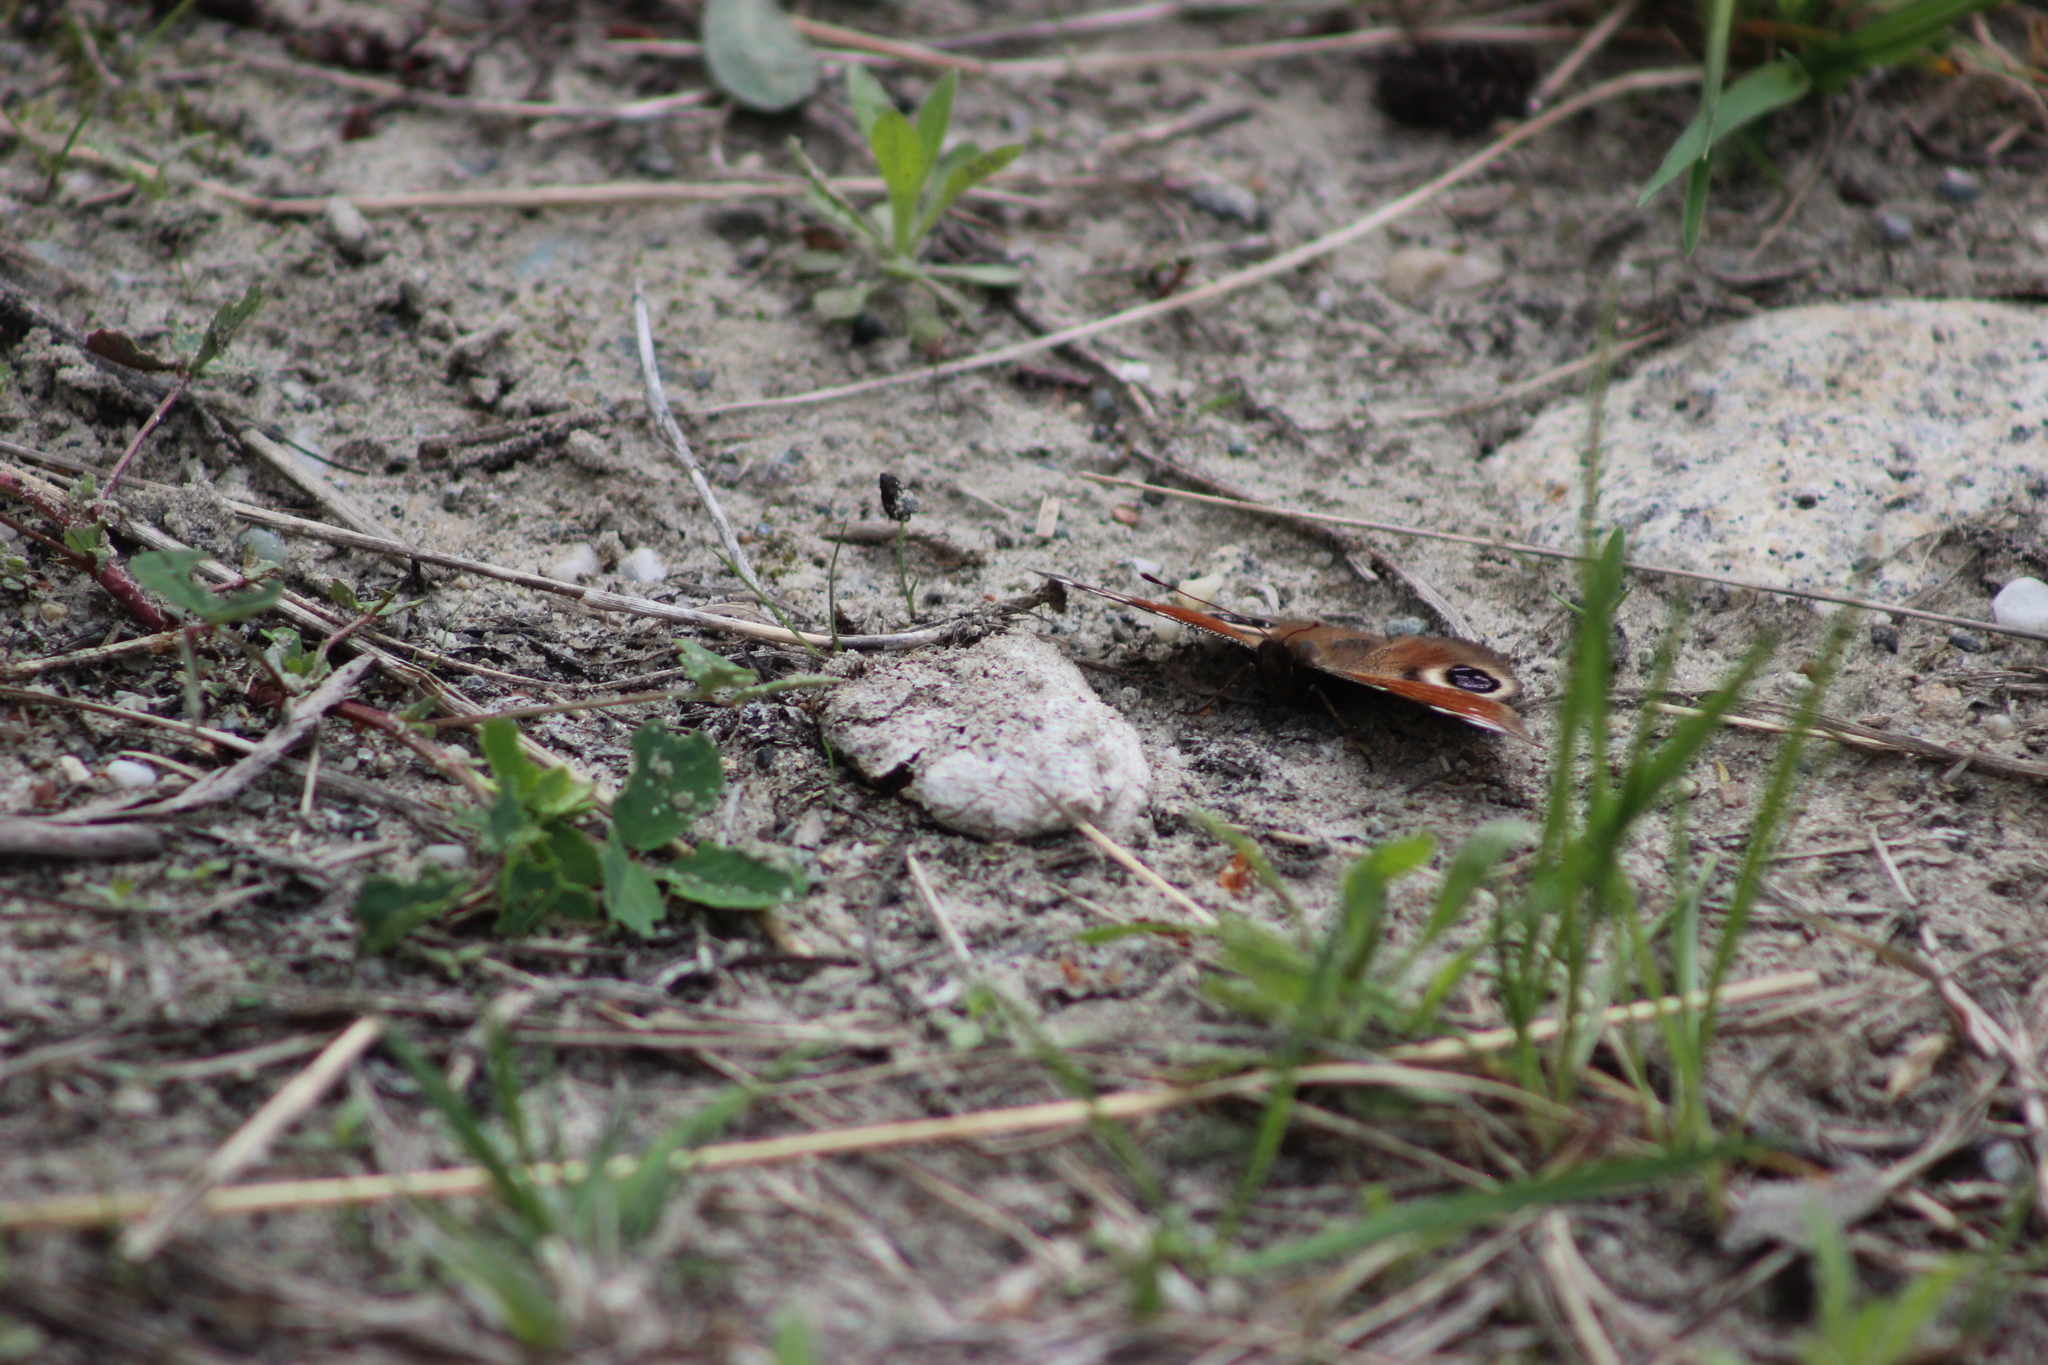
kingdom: Animalia
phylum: Arthropoda
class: Insecta
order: Lepidoptera
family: Nymphalidae
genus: Aglais
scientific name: Aglais io
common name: Peacock
